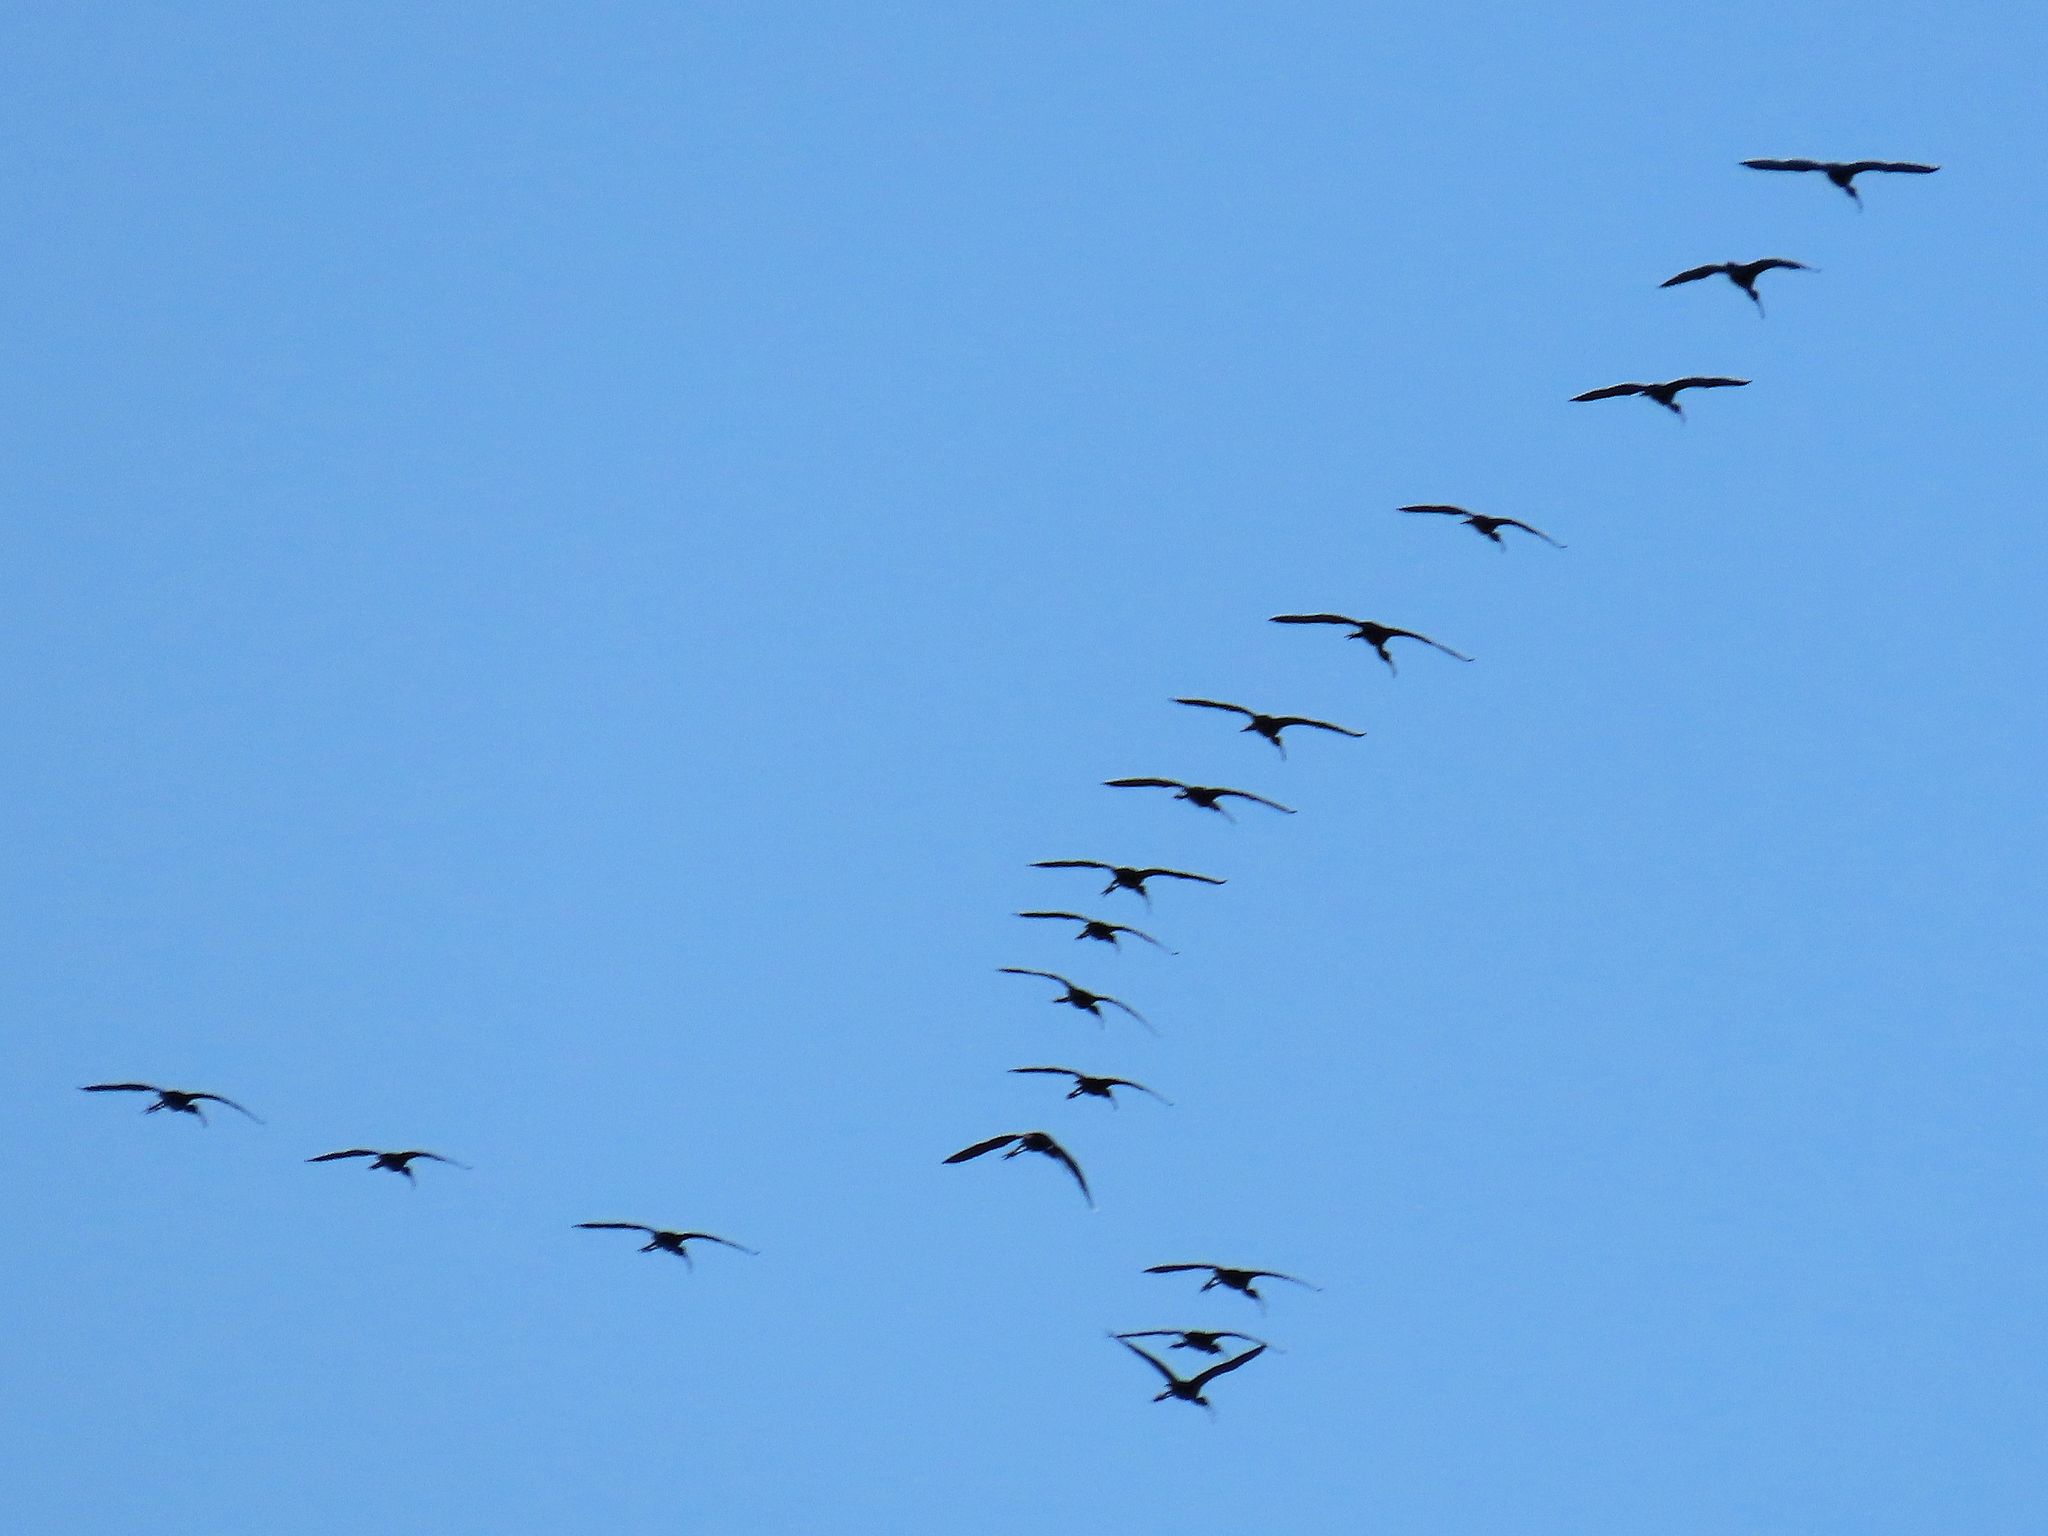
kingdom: Animalia
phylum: Chordata
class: Aves
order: Pelecaniformes
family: Threskiornithidae
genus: Plegadis
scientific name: Plegadis chihi
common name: White-faced ibis
